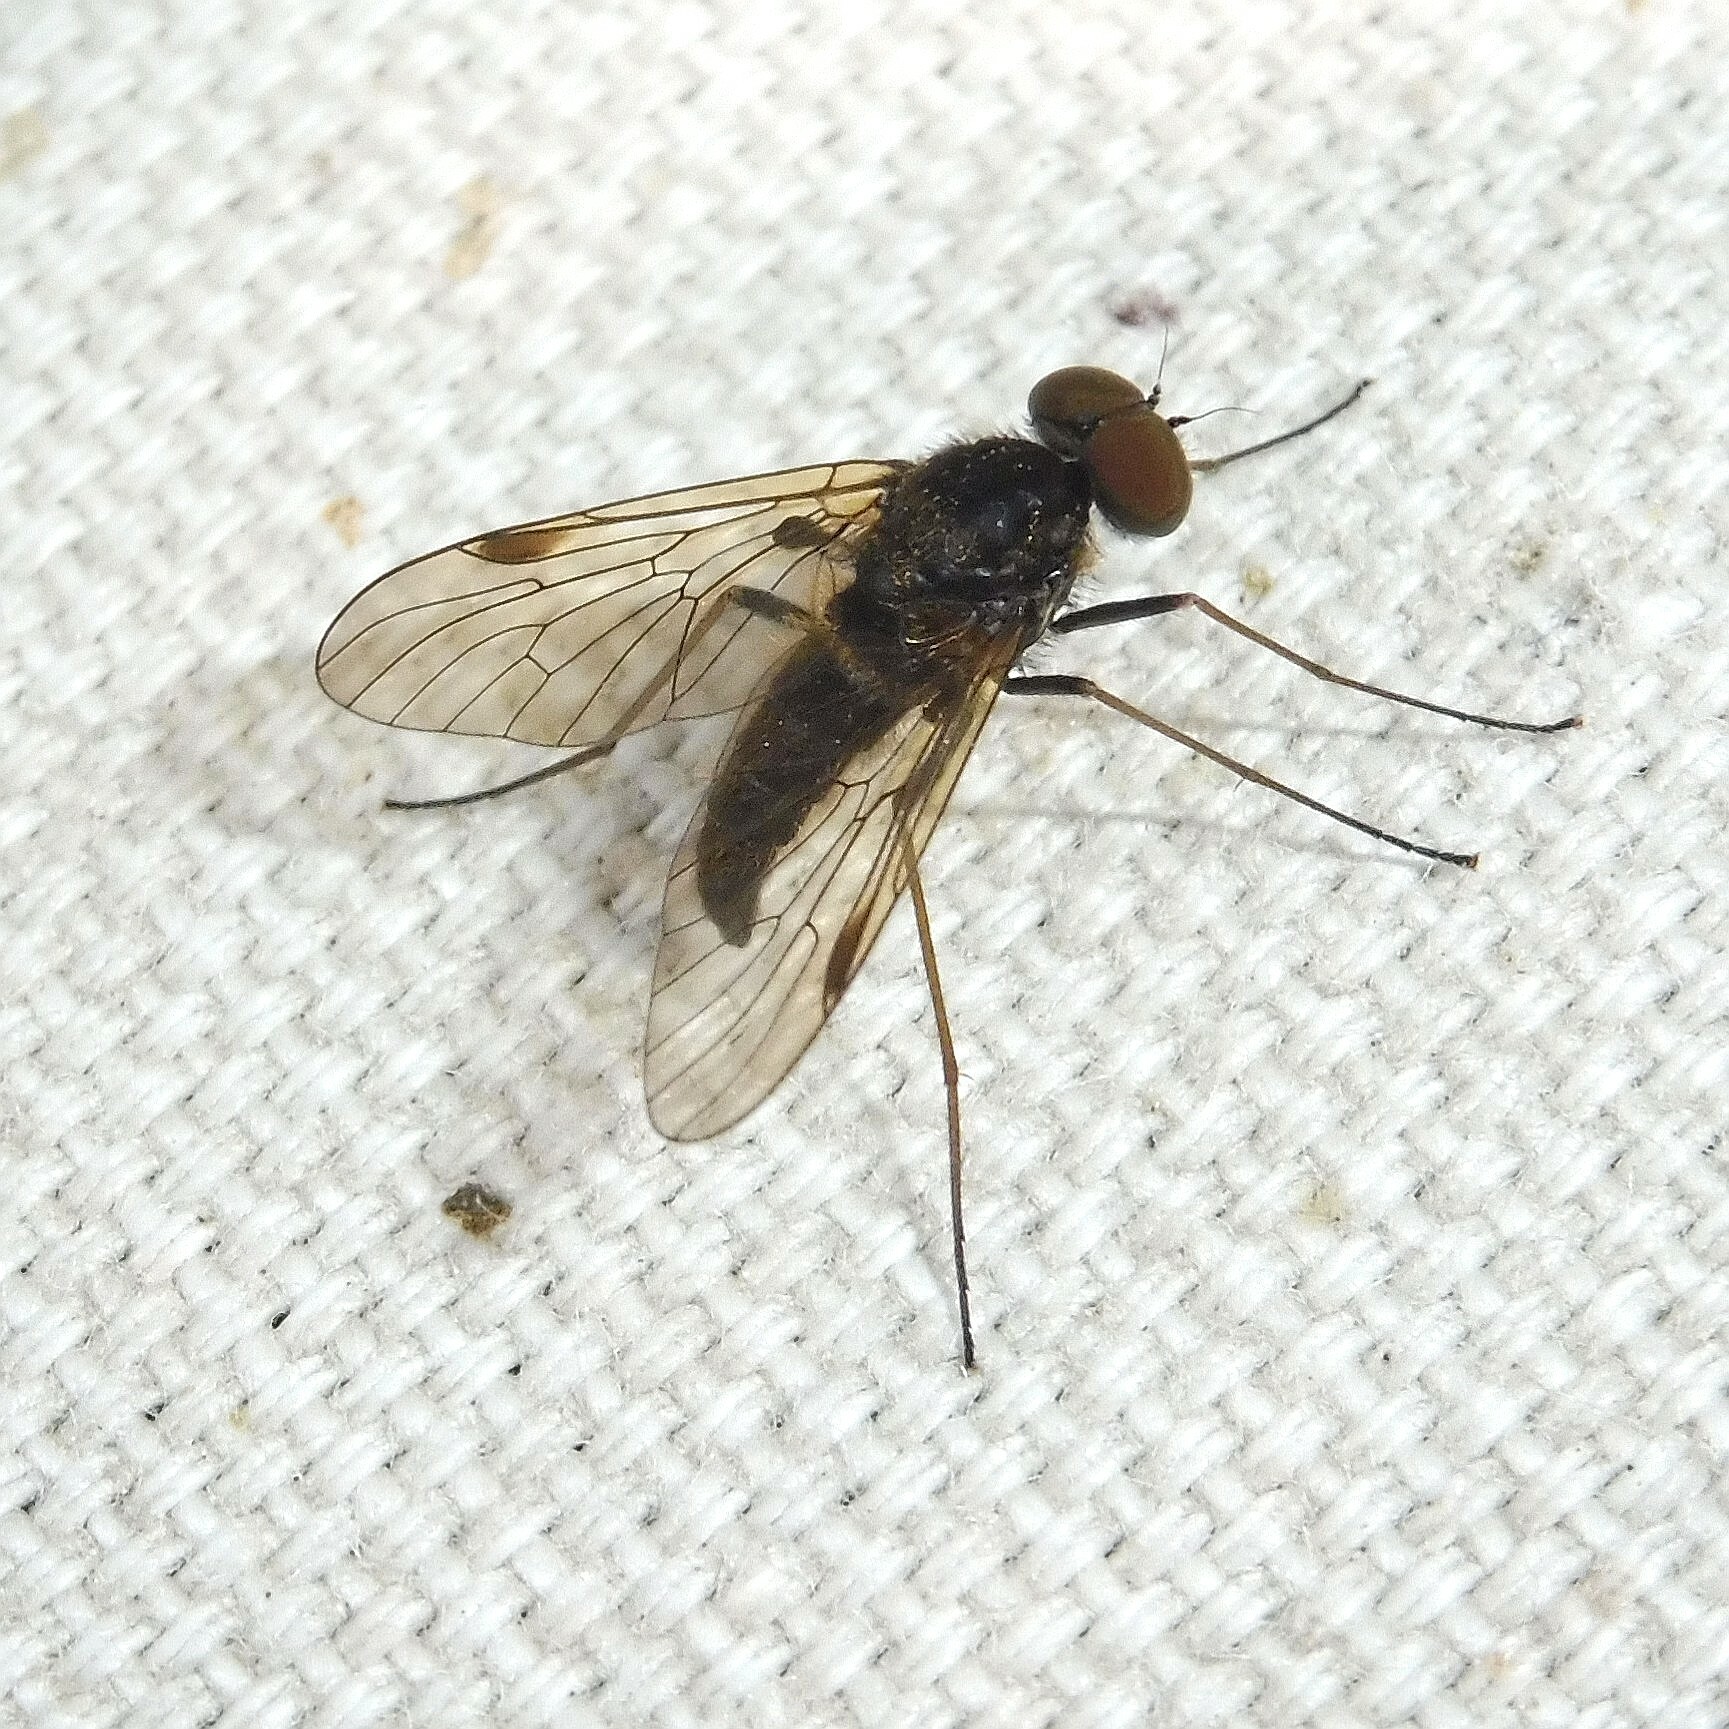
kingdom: Animalia
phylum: Arthropoda
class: Insecta
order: Diptera
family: Rhagionidae
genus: Chrysopilus
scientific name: Chrysopilus cristatus
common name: Black snipefly
